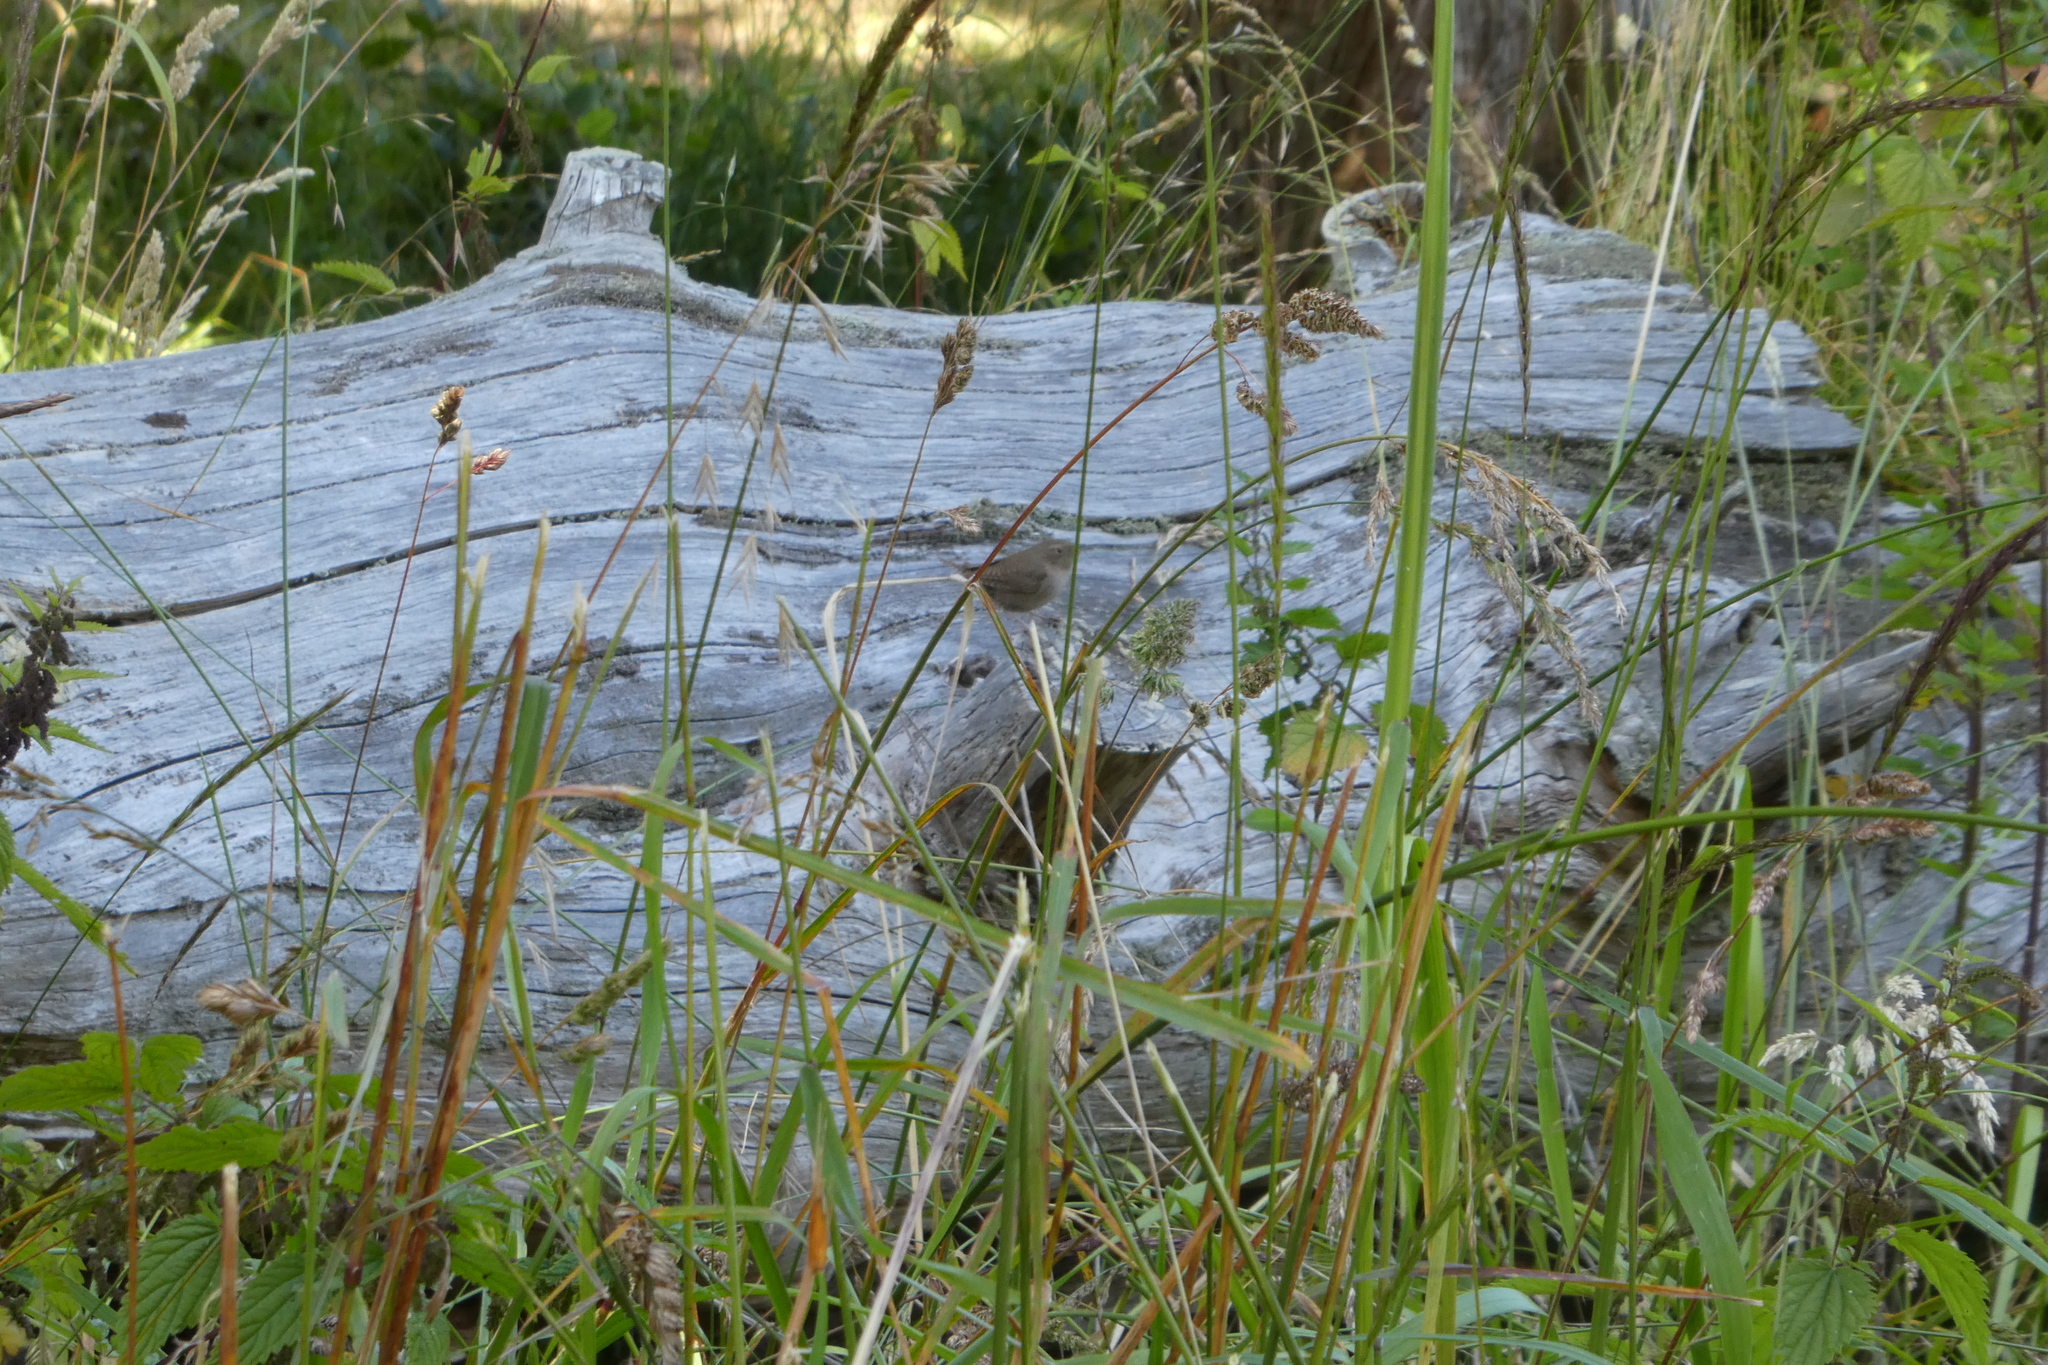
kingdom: Animalia
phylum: Chordata
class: Aves
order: Passeriformes
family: Troglodytidae
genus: Troglodytes
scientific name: Troglodytes aedon
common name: House wren
